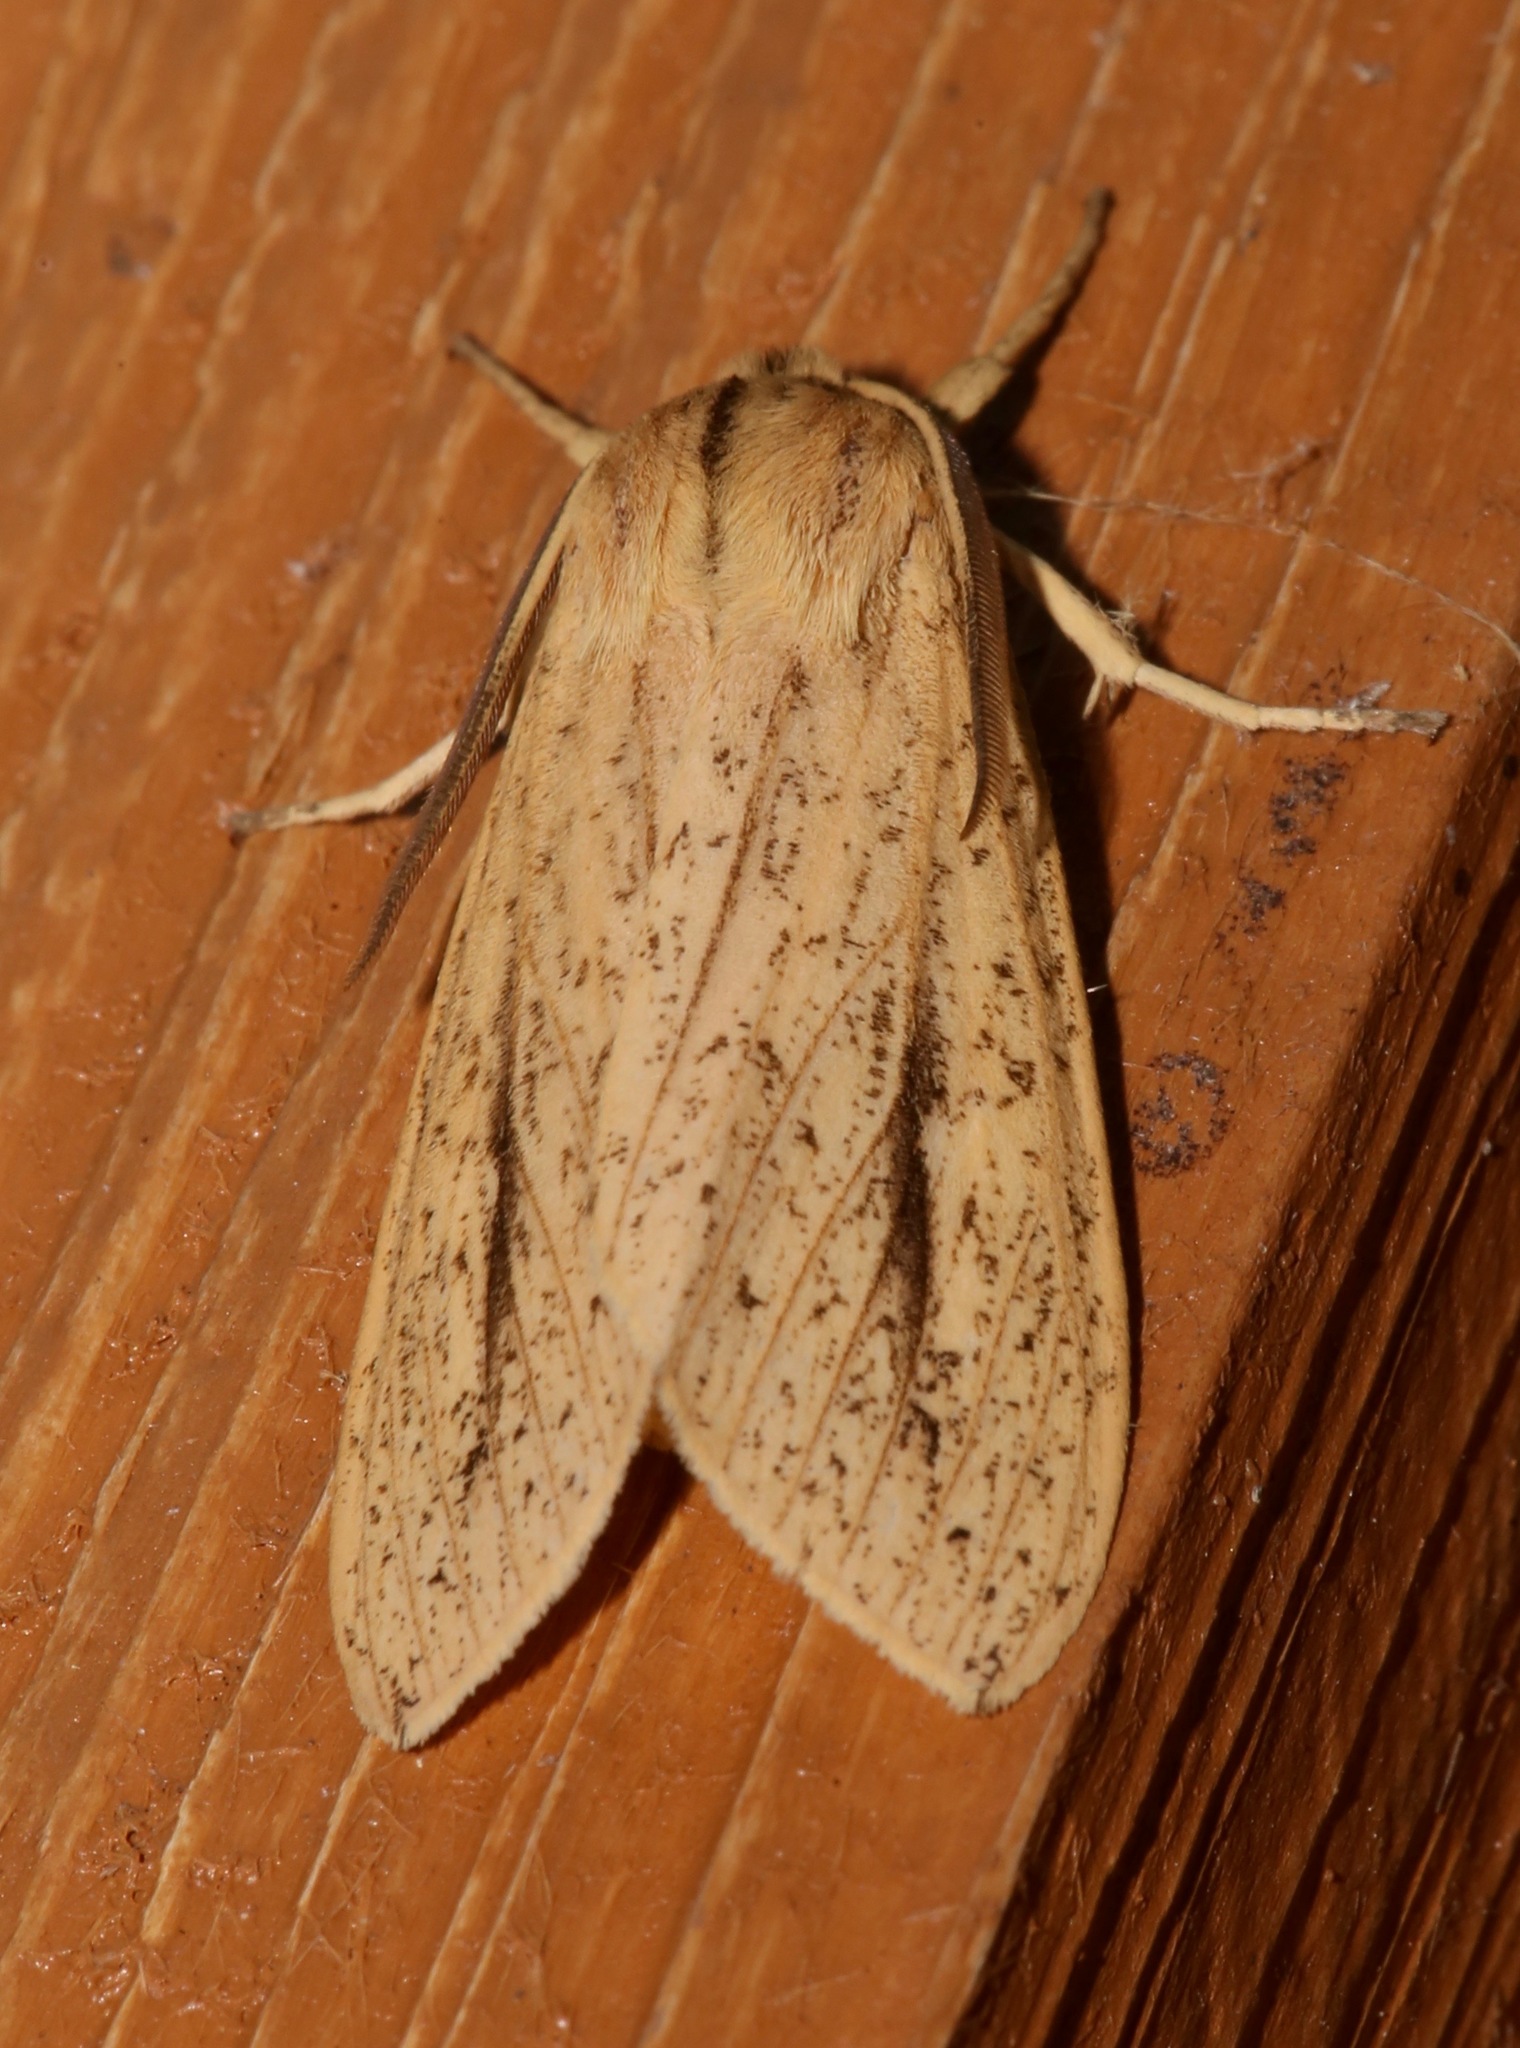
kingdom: Animalia
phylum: Arthropoda
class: Insecta
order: Lepidoptera
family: Erebidae
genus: Leucanopsis
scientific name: Leucanopsis longa
